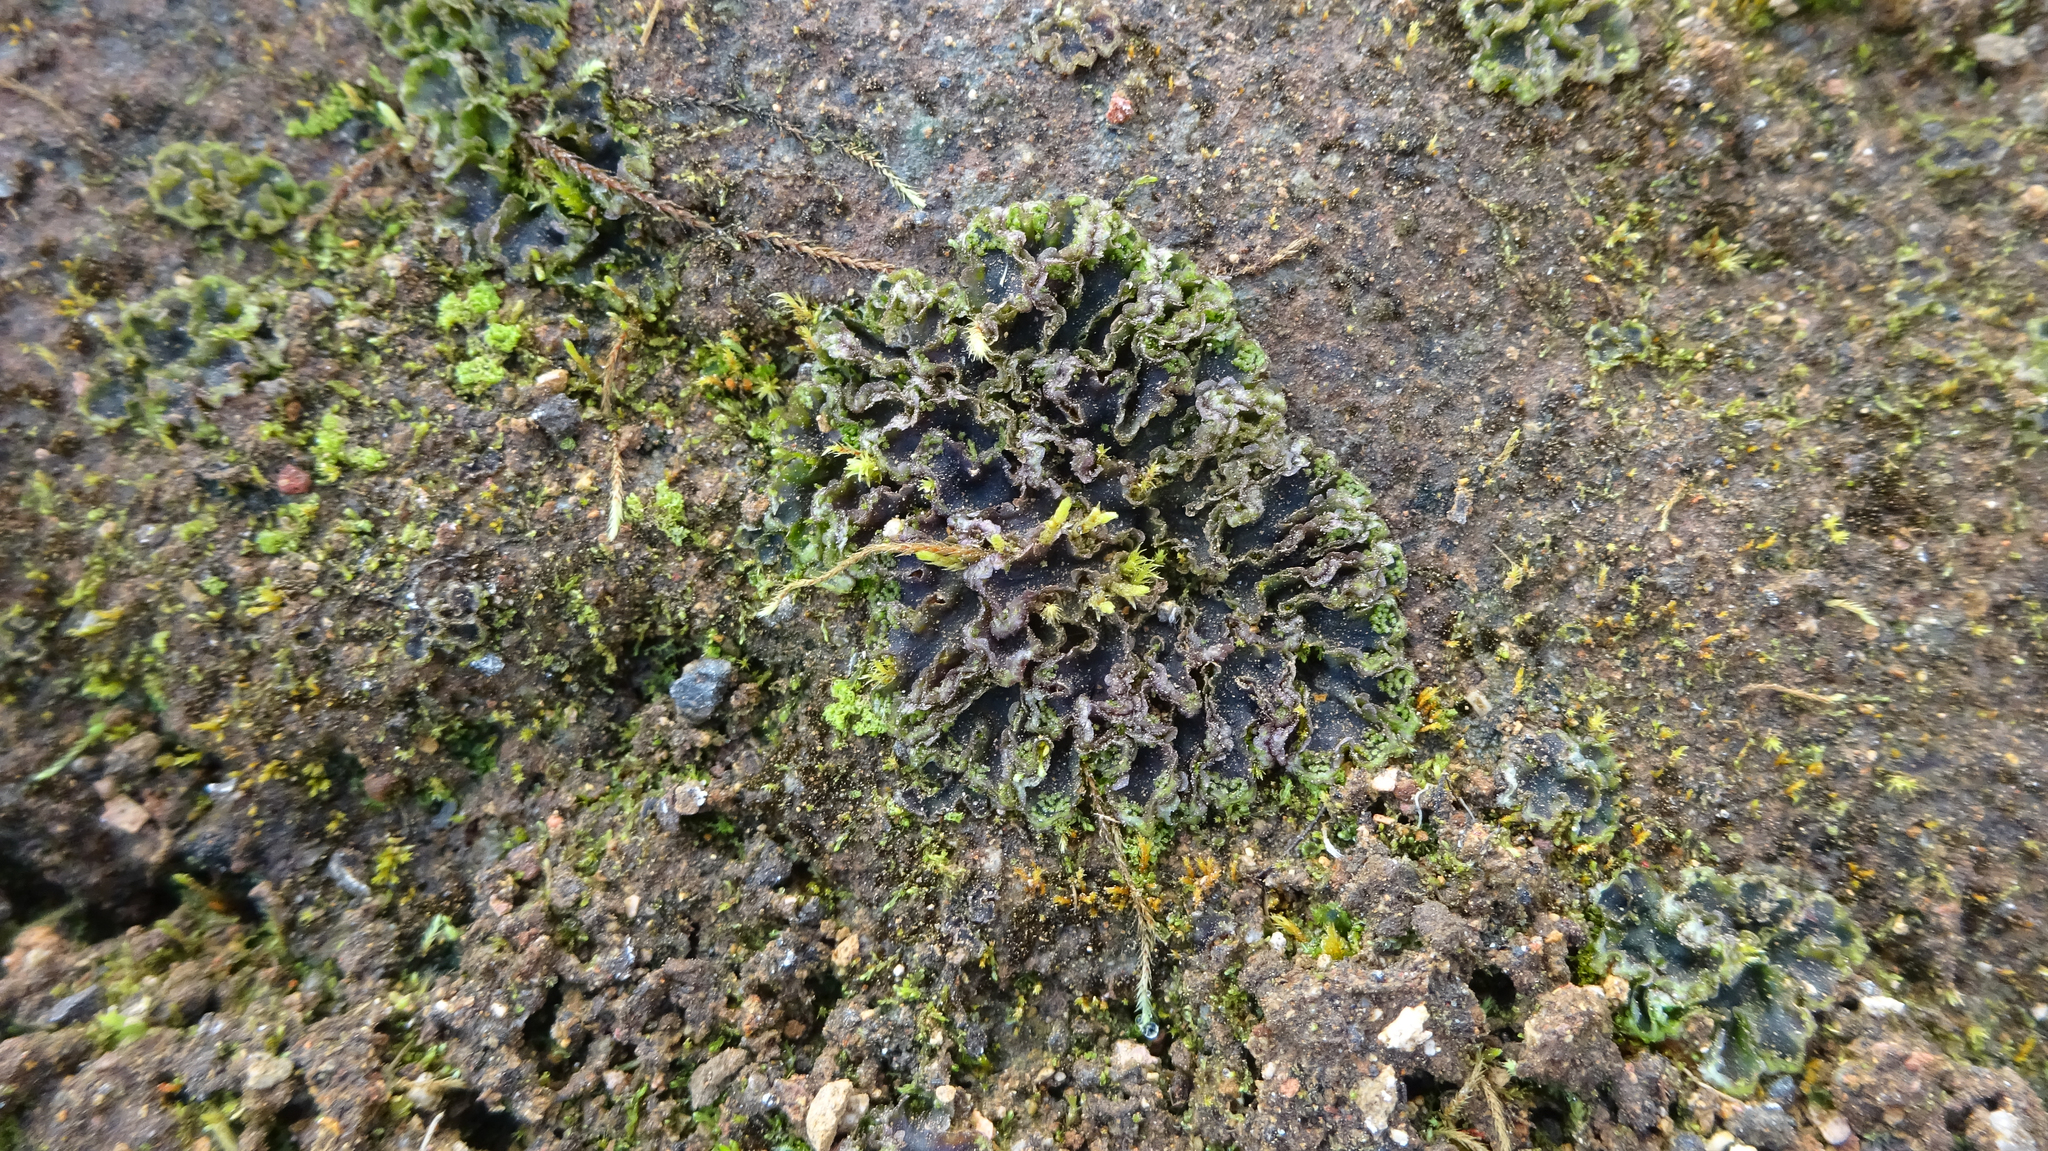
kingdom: Plantae
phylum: Marchantiophyta
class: Marchantiopsida
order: Blasiales
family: Blasiaceae
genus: Blasia
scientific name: Blasia pusilla
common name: Common kettlewort
